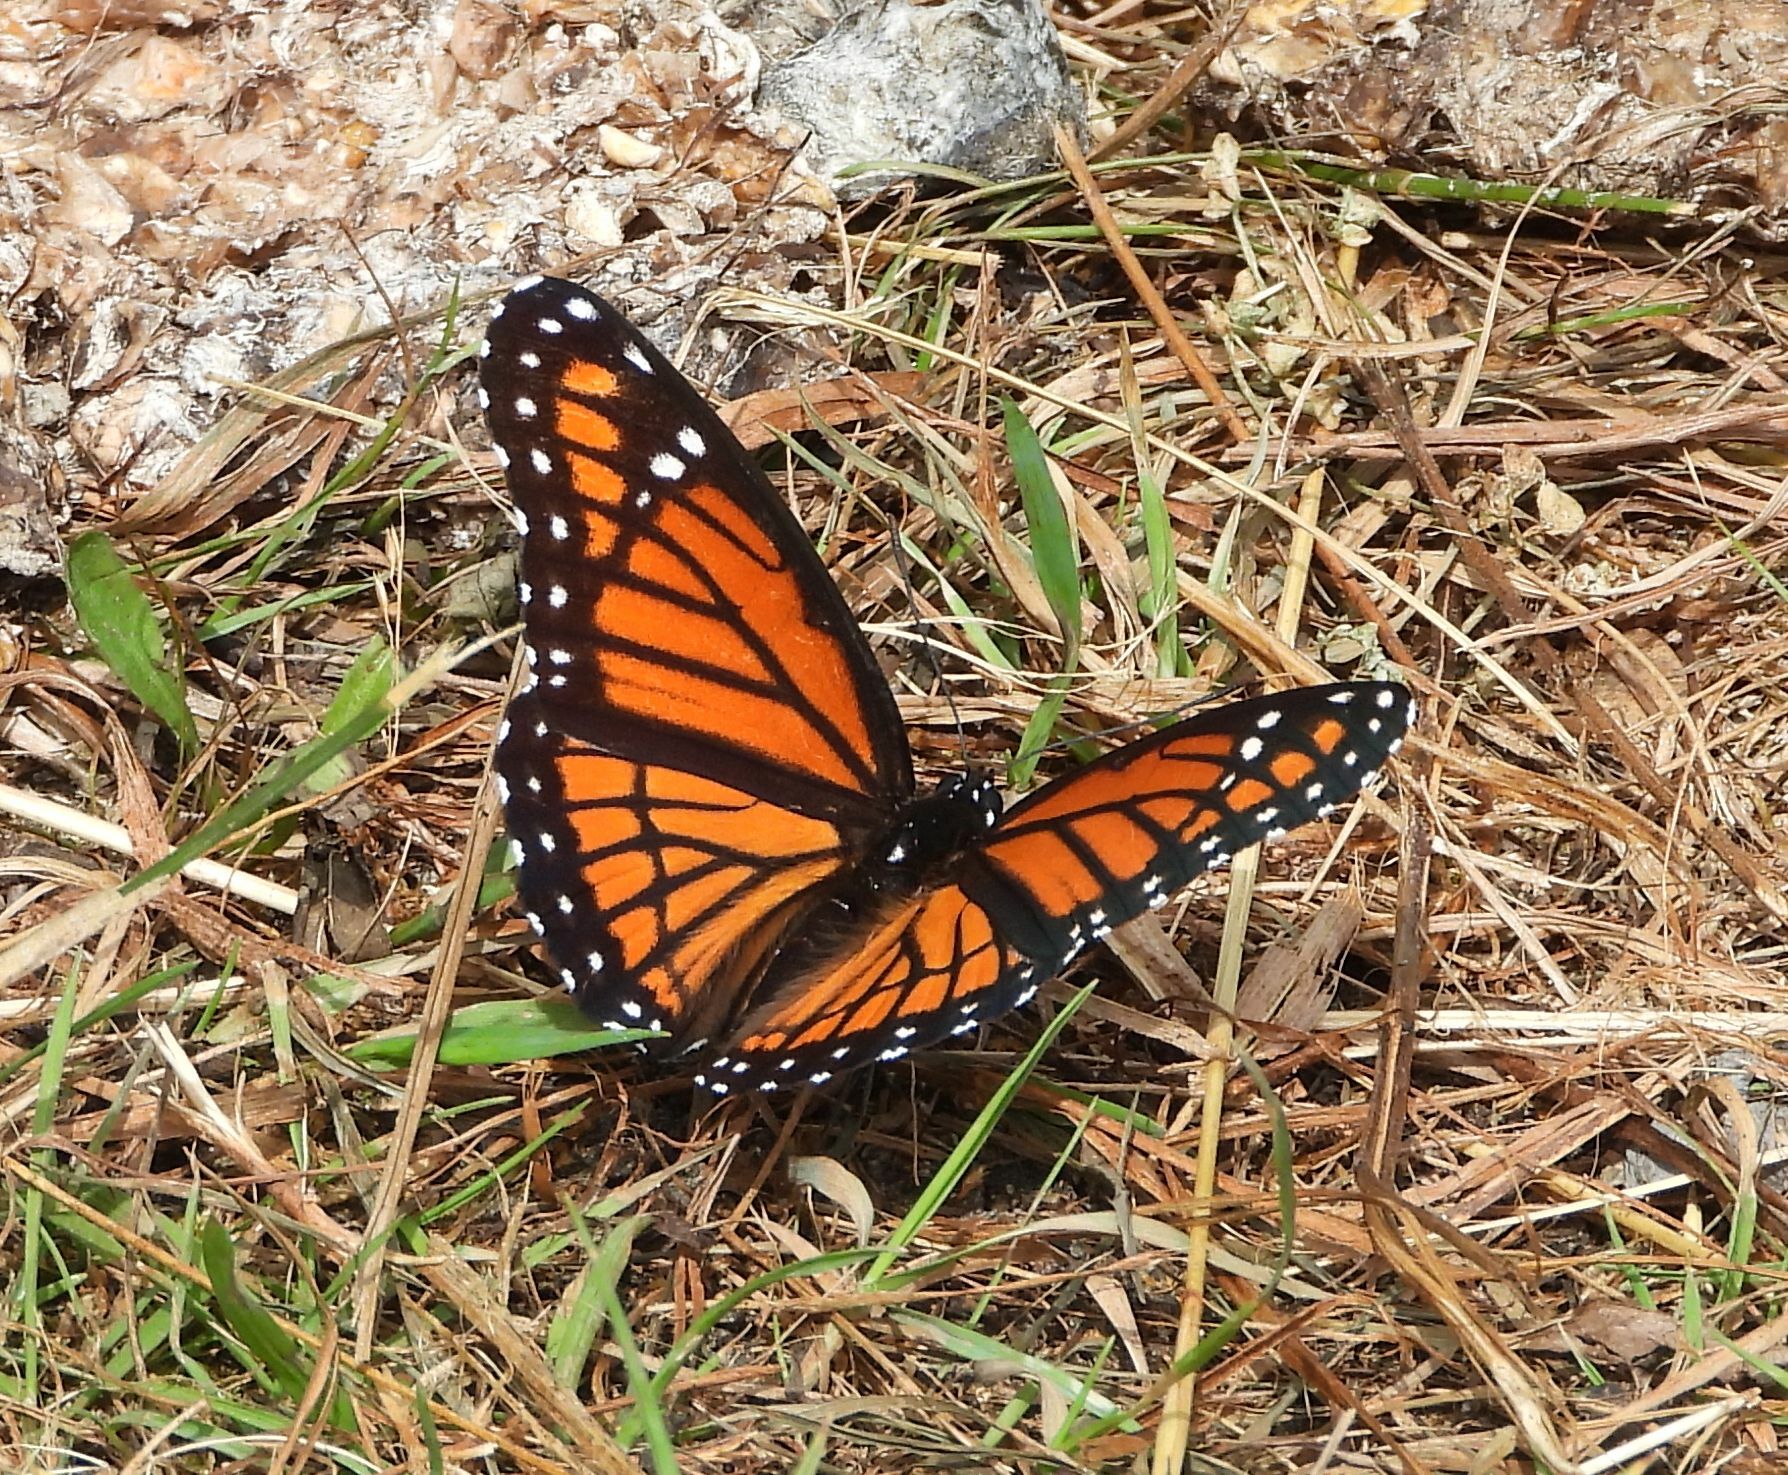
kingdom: Animalia
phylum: Arthropoda
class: Insecta
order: Lepidoptera
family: Nymphalidae
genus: Limenitis
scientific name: Limenitis archippus
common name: Viceroy
